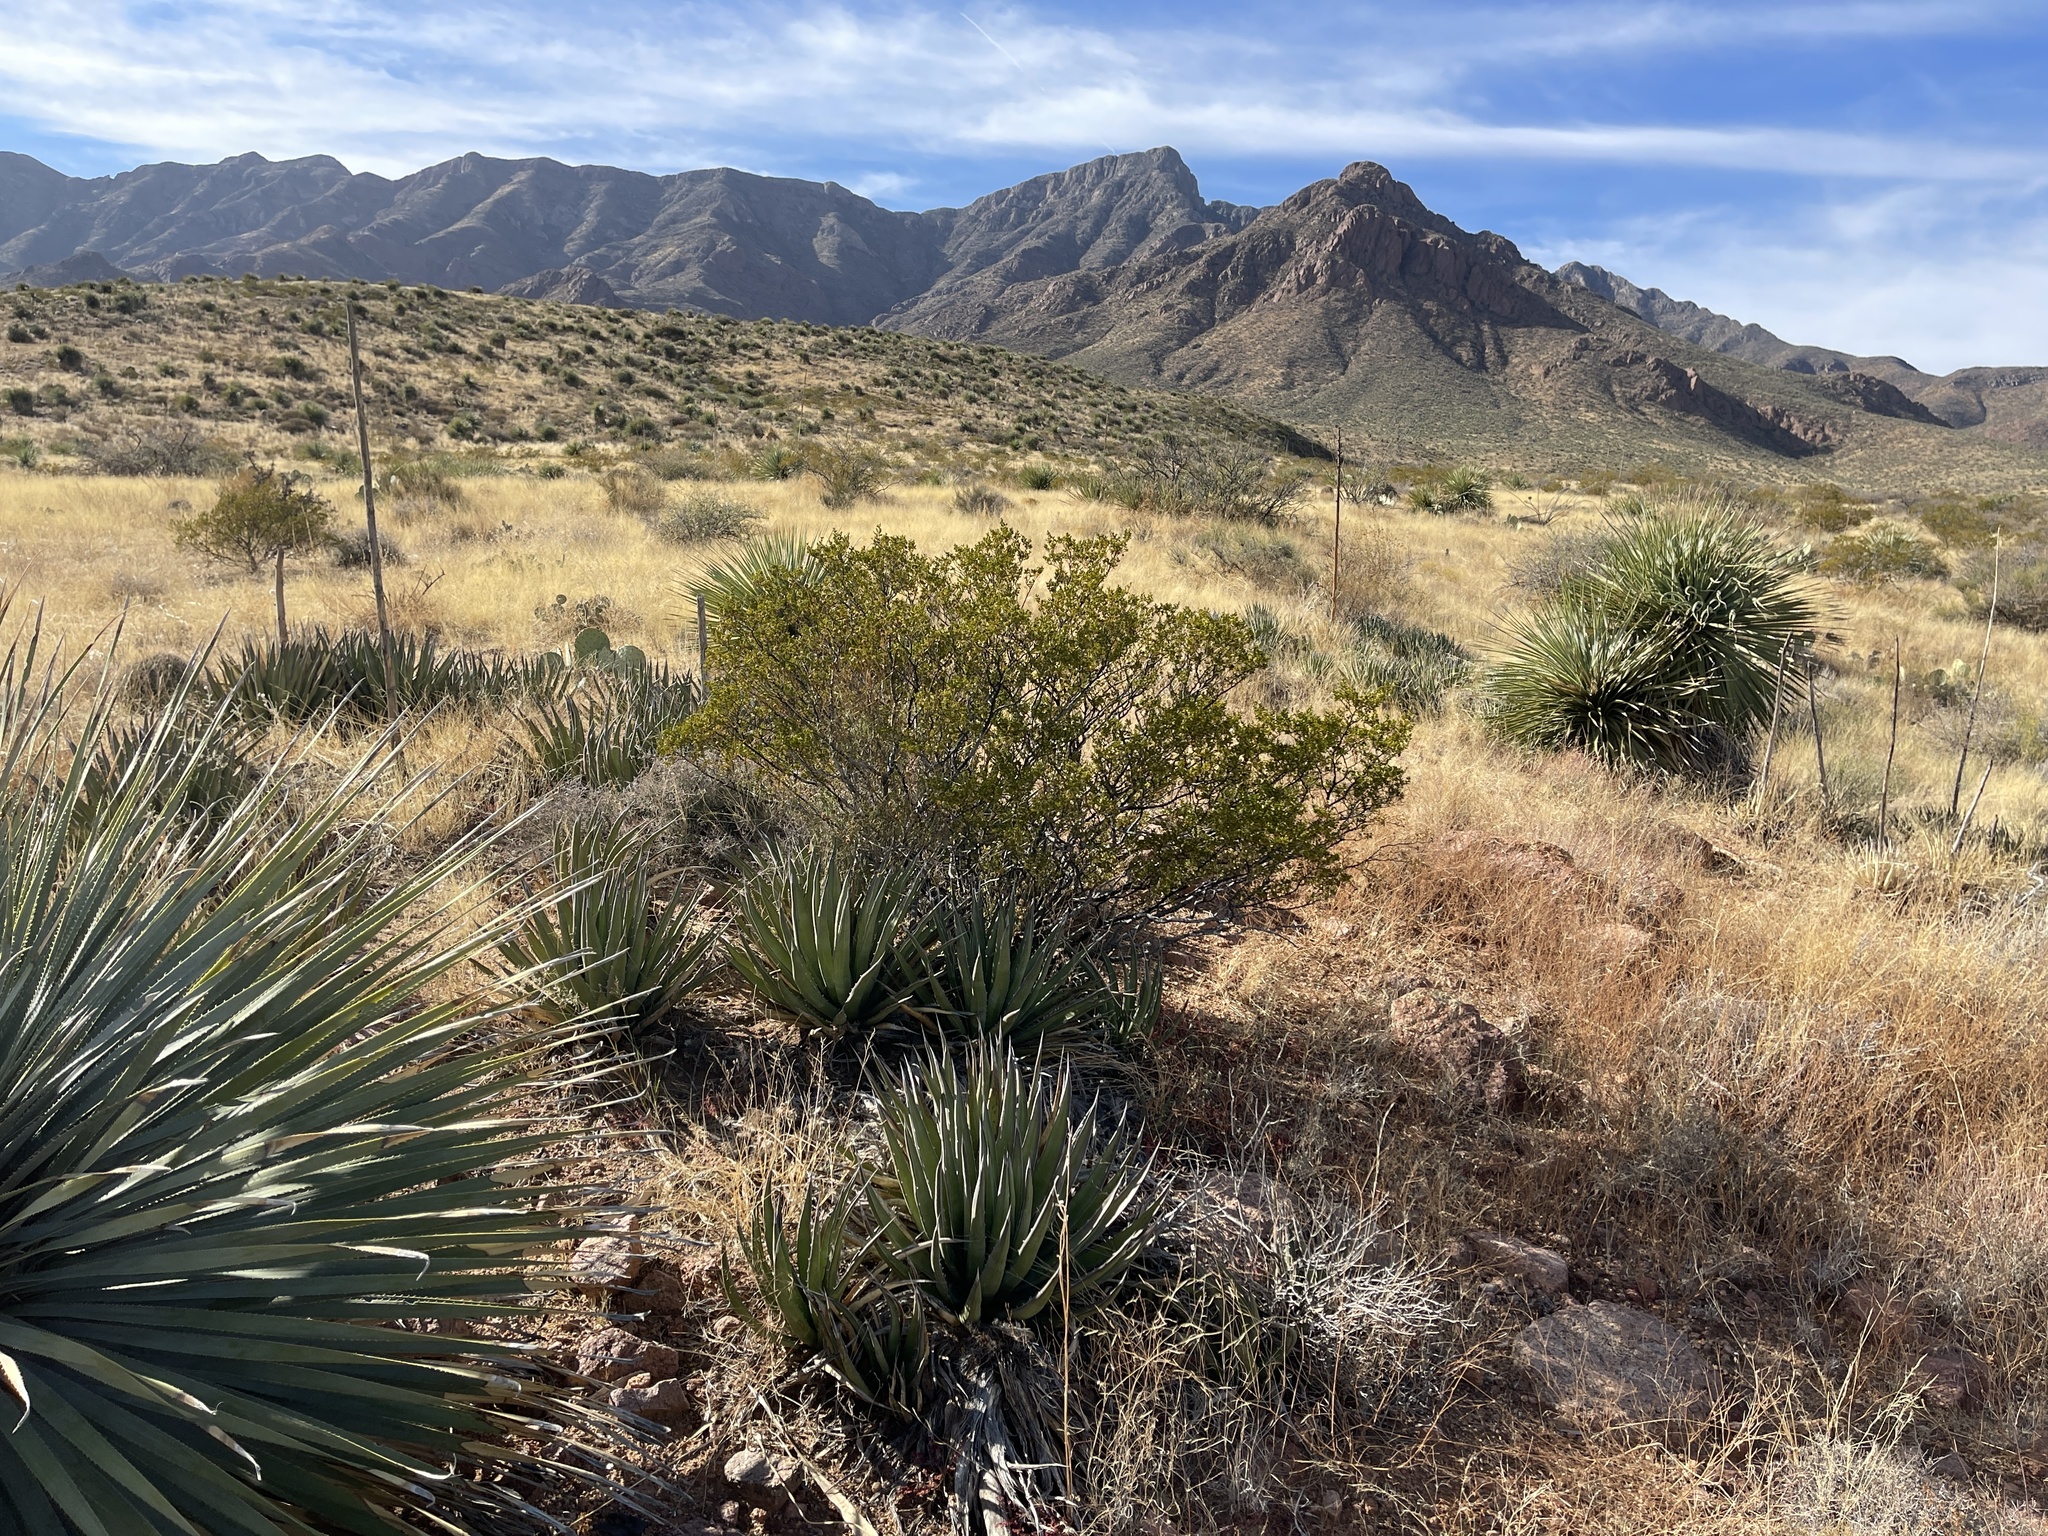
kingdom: Plantae
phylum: Tracheophyta
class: Magnoliopsida
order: Zygophyllales
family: Zygophyllaceae
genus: Larrea
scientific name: Larrea tridentata
